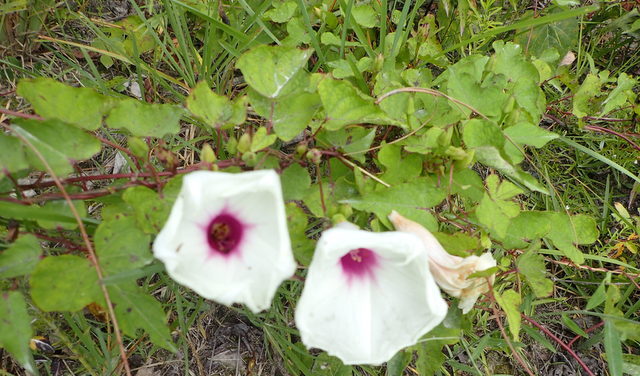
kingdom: Plantae
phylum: Tracheophyta
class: Magnoliopsida
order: Solanales
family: Convolvulaceae
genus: Ipomoea
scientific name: Ipomoea pandurata
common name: Man-of-the-earth
